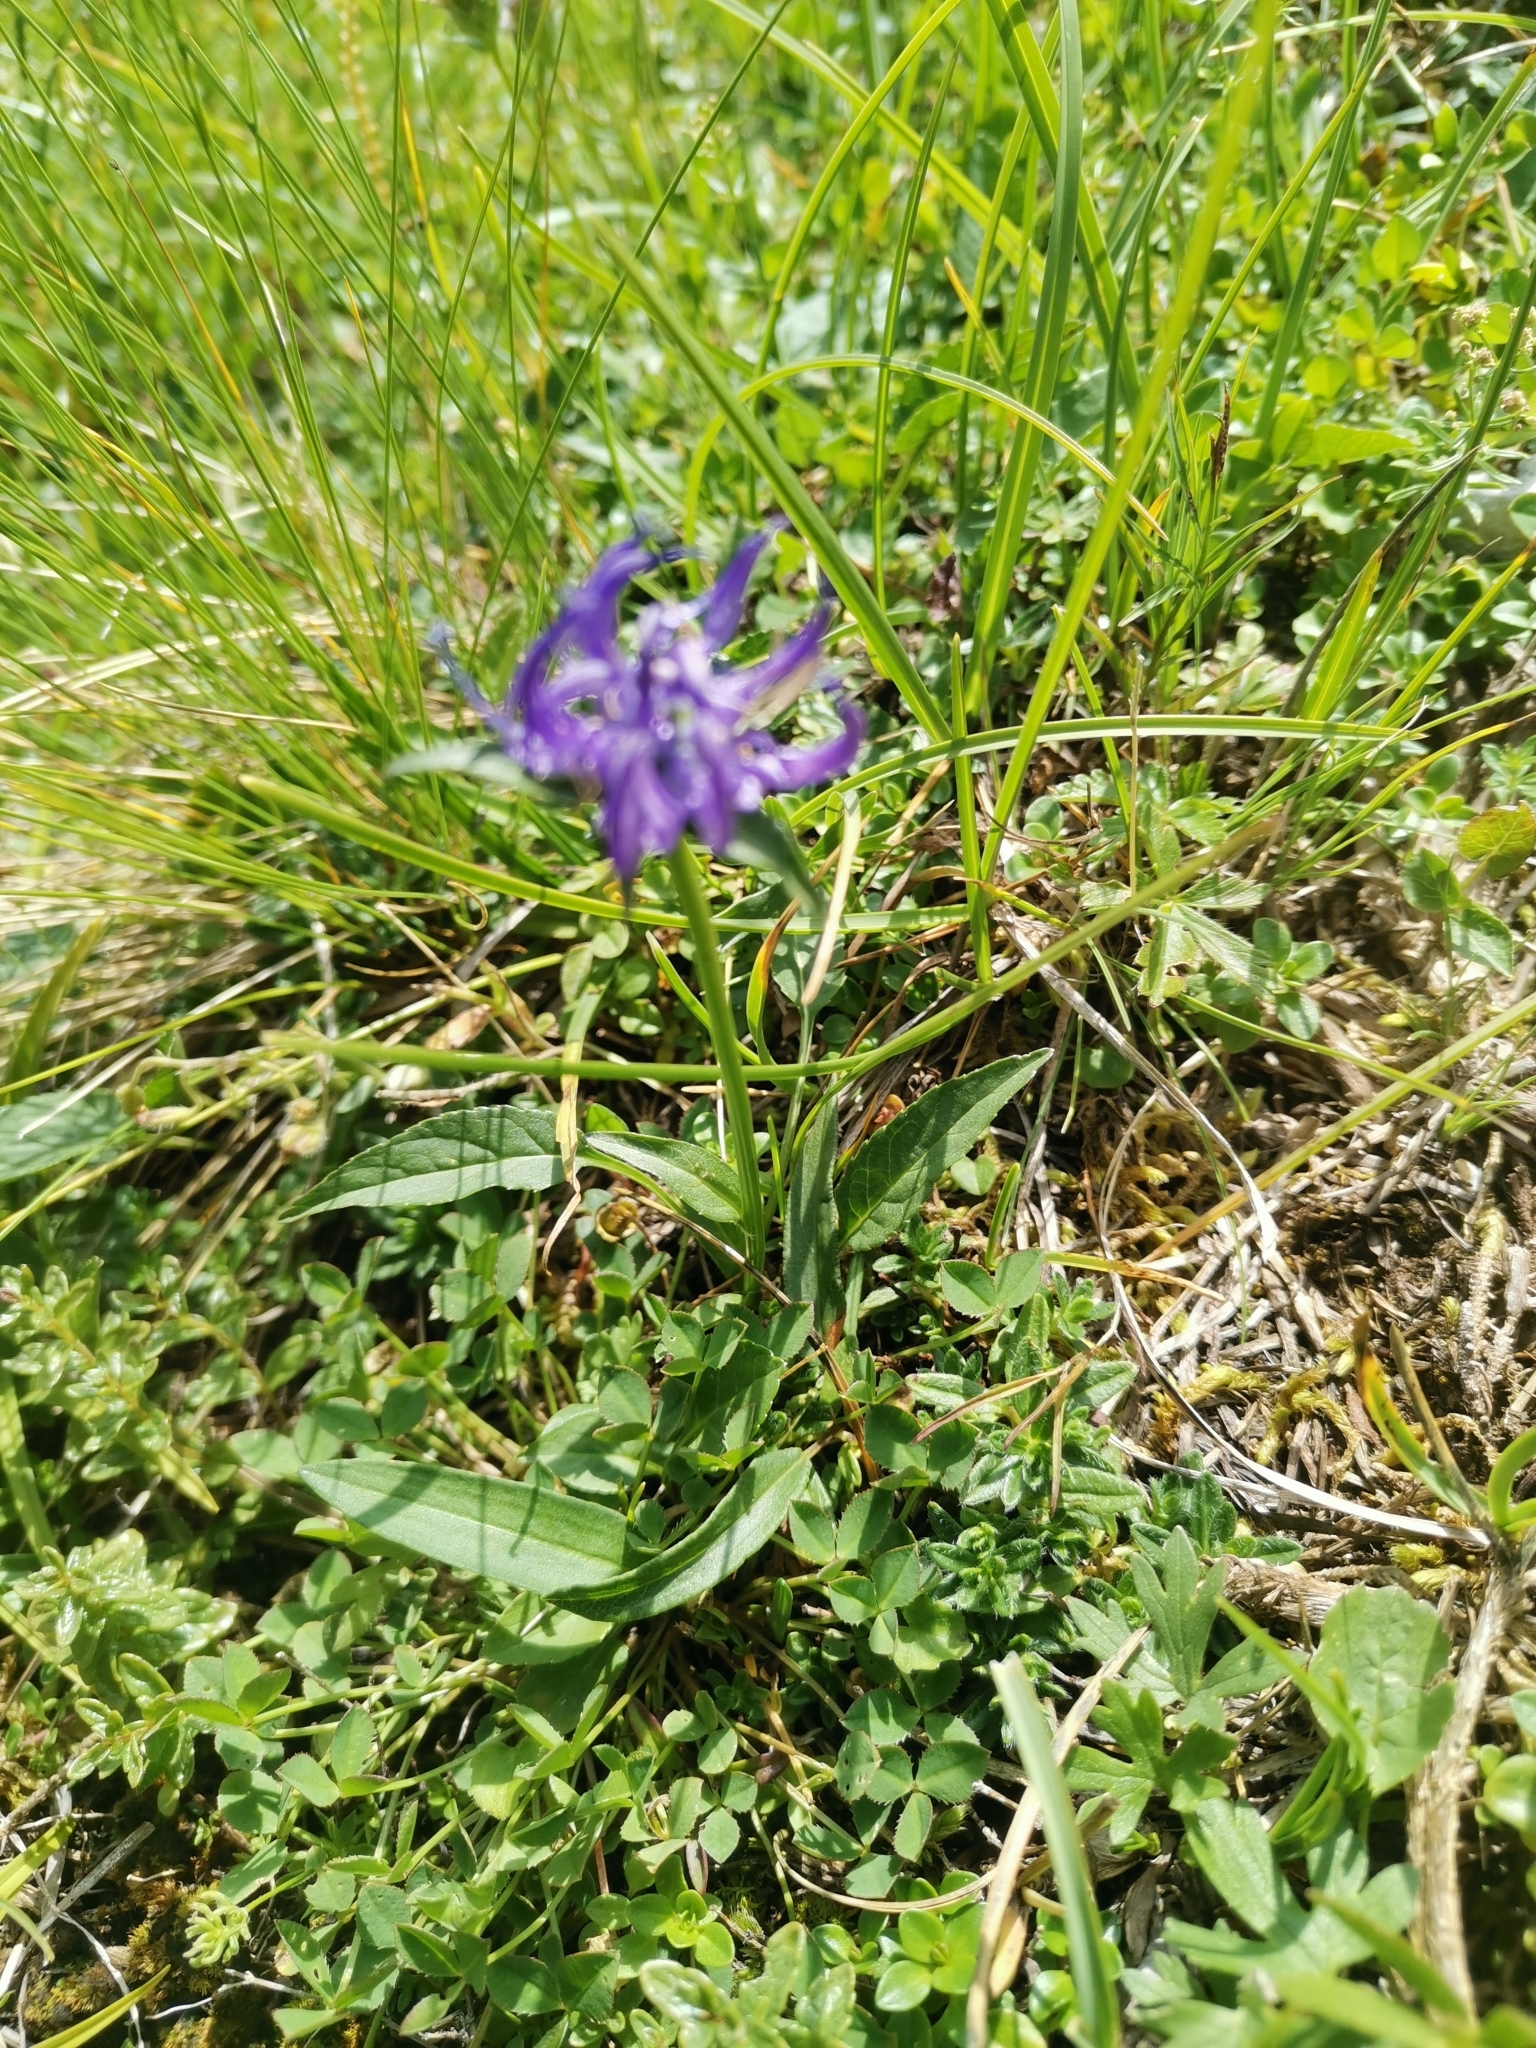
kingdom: Plantae
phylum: Tracheophyta
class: Magnoliopsida
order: Asterales
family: Campanulaceae
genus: Phyteuma
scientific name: Phyteuma orbiculare
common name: Round-headed rampion
